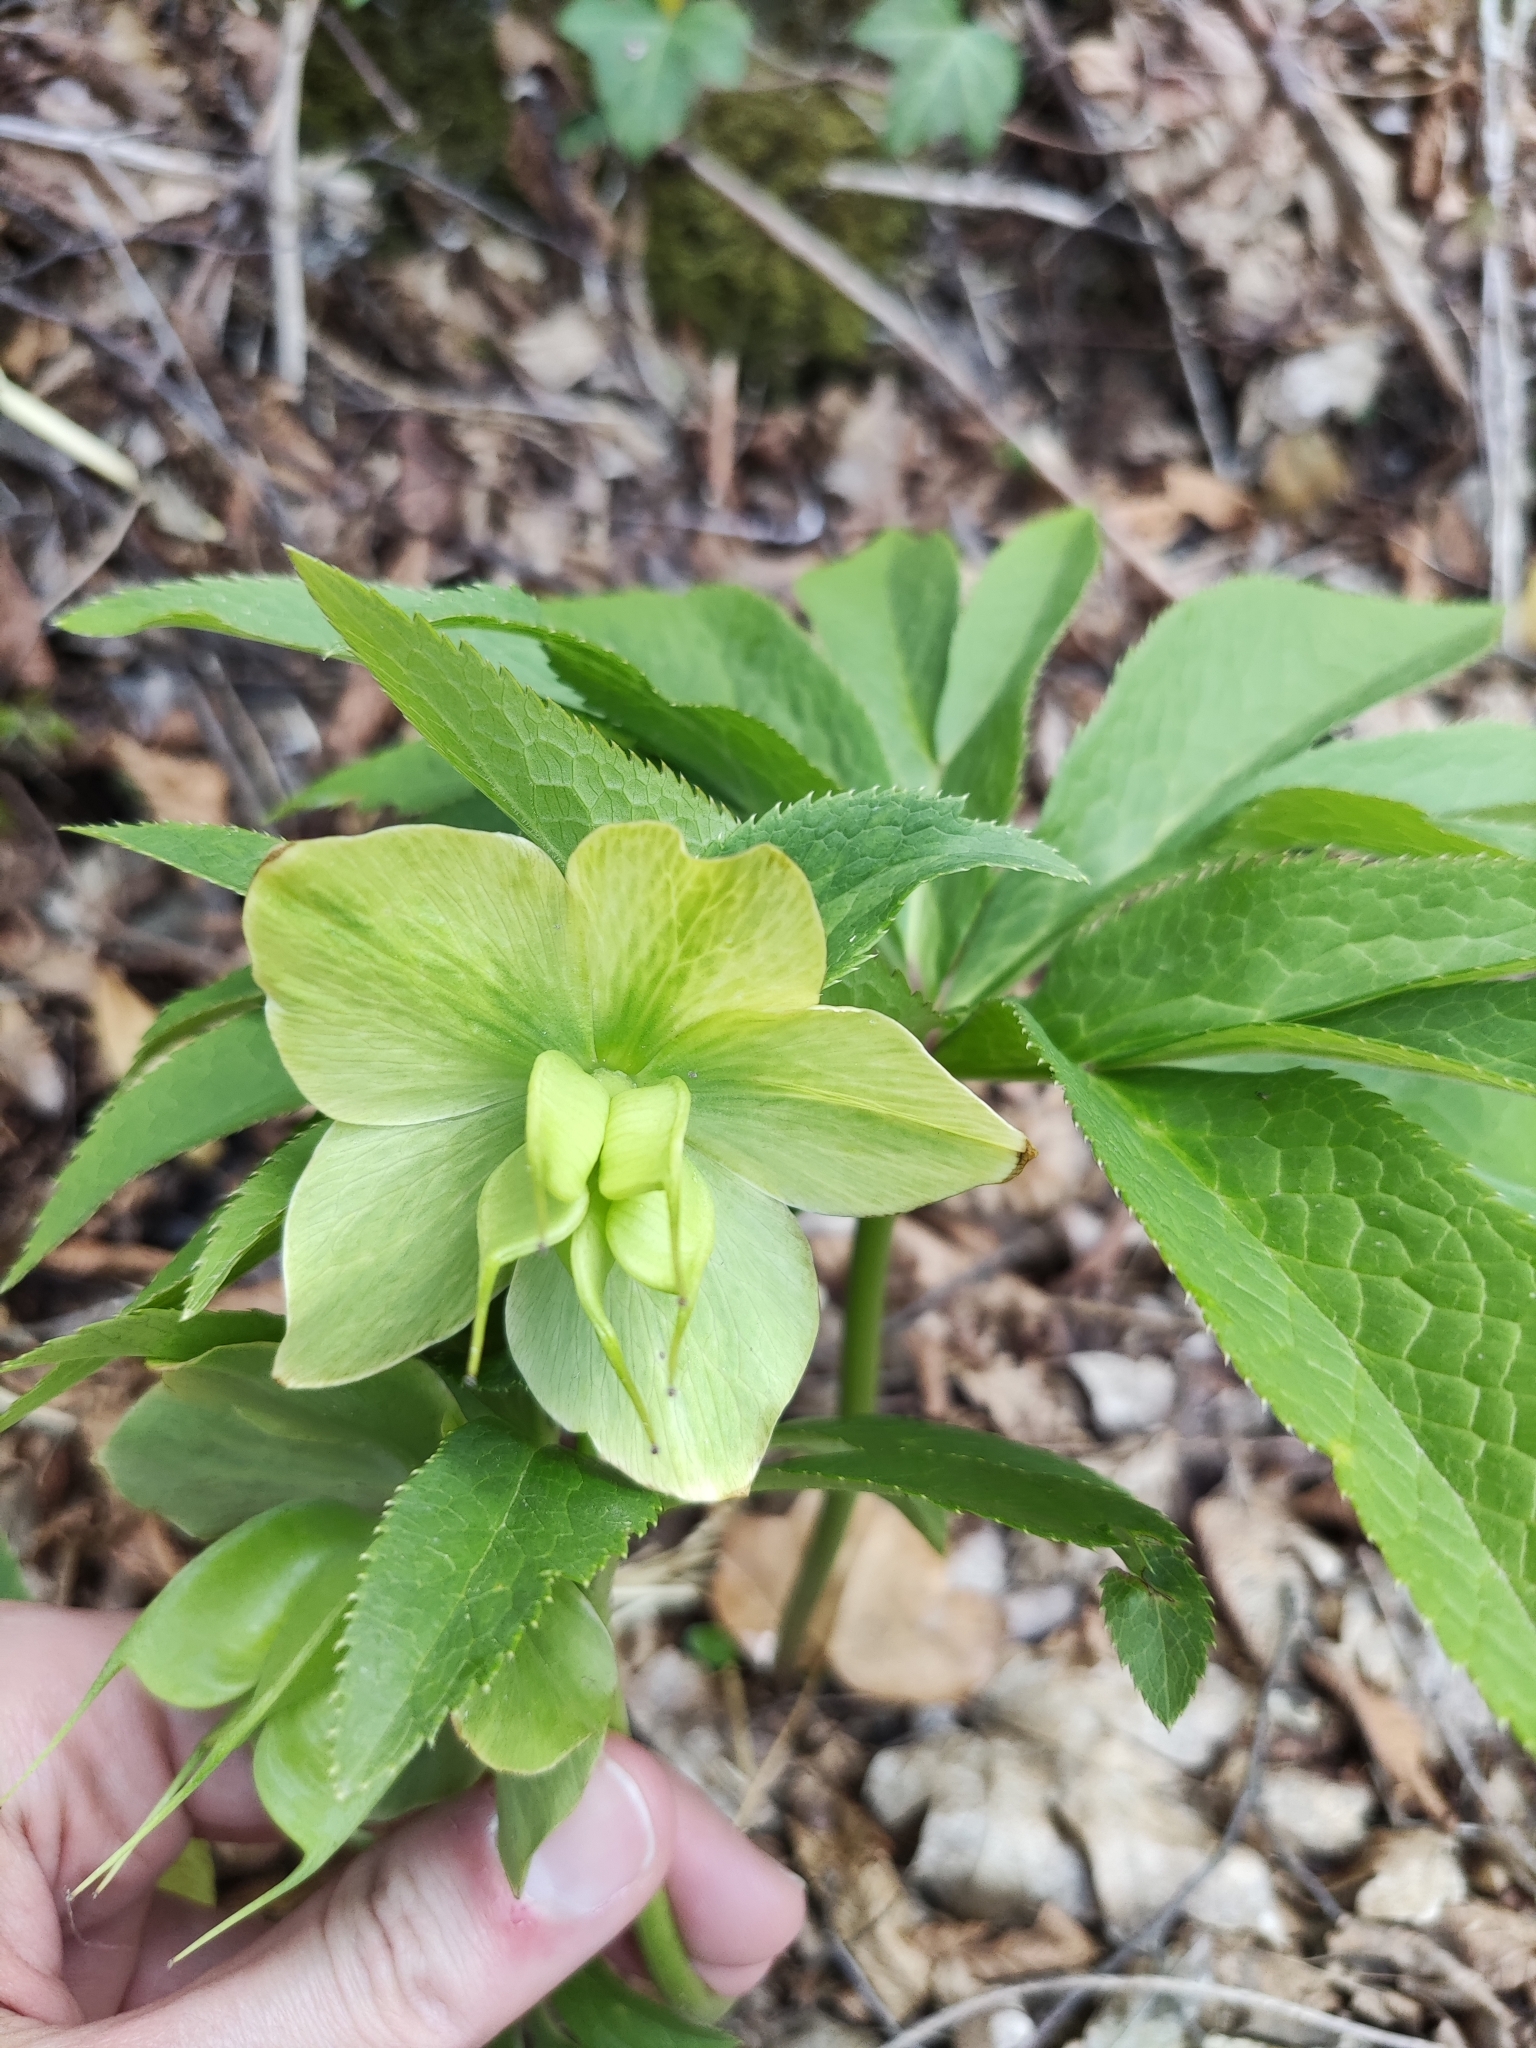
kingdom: Plantae
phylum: Tracheophyta
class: Magnoliopsida
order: Ranunculales
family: Ranunculaceae
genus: Helleborus
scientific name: Helleborus viridis
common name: Green hellebore
